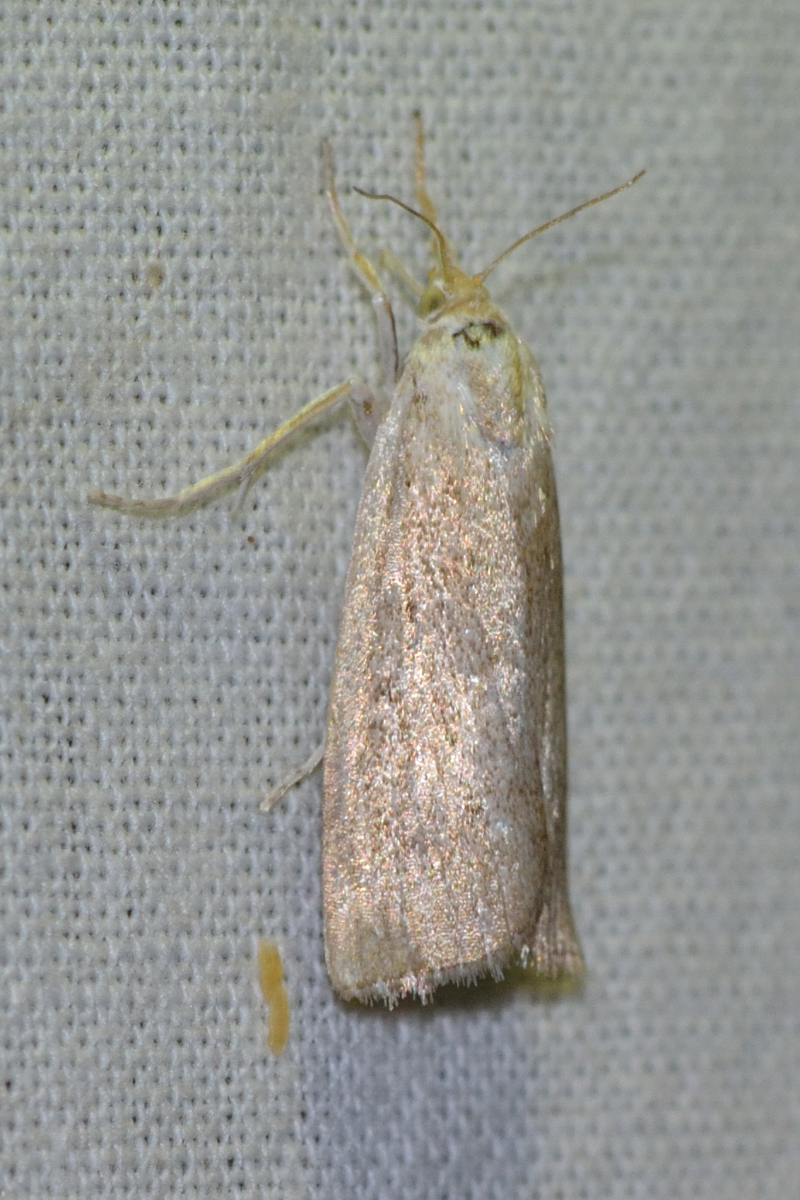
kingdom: Animalia
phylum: Arthropoda
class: Insecta
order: Lepidoptera
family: Crambidae
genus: Calamotropha
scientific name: Calamotropha paludella
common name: Bulrush veneer
